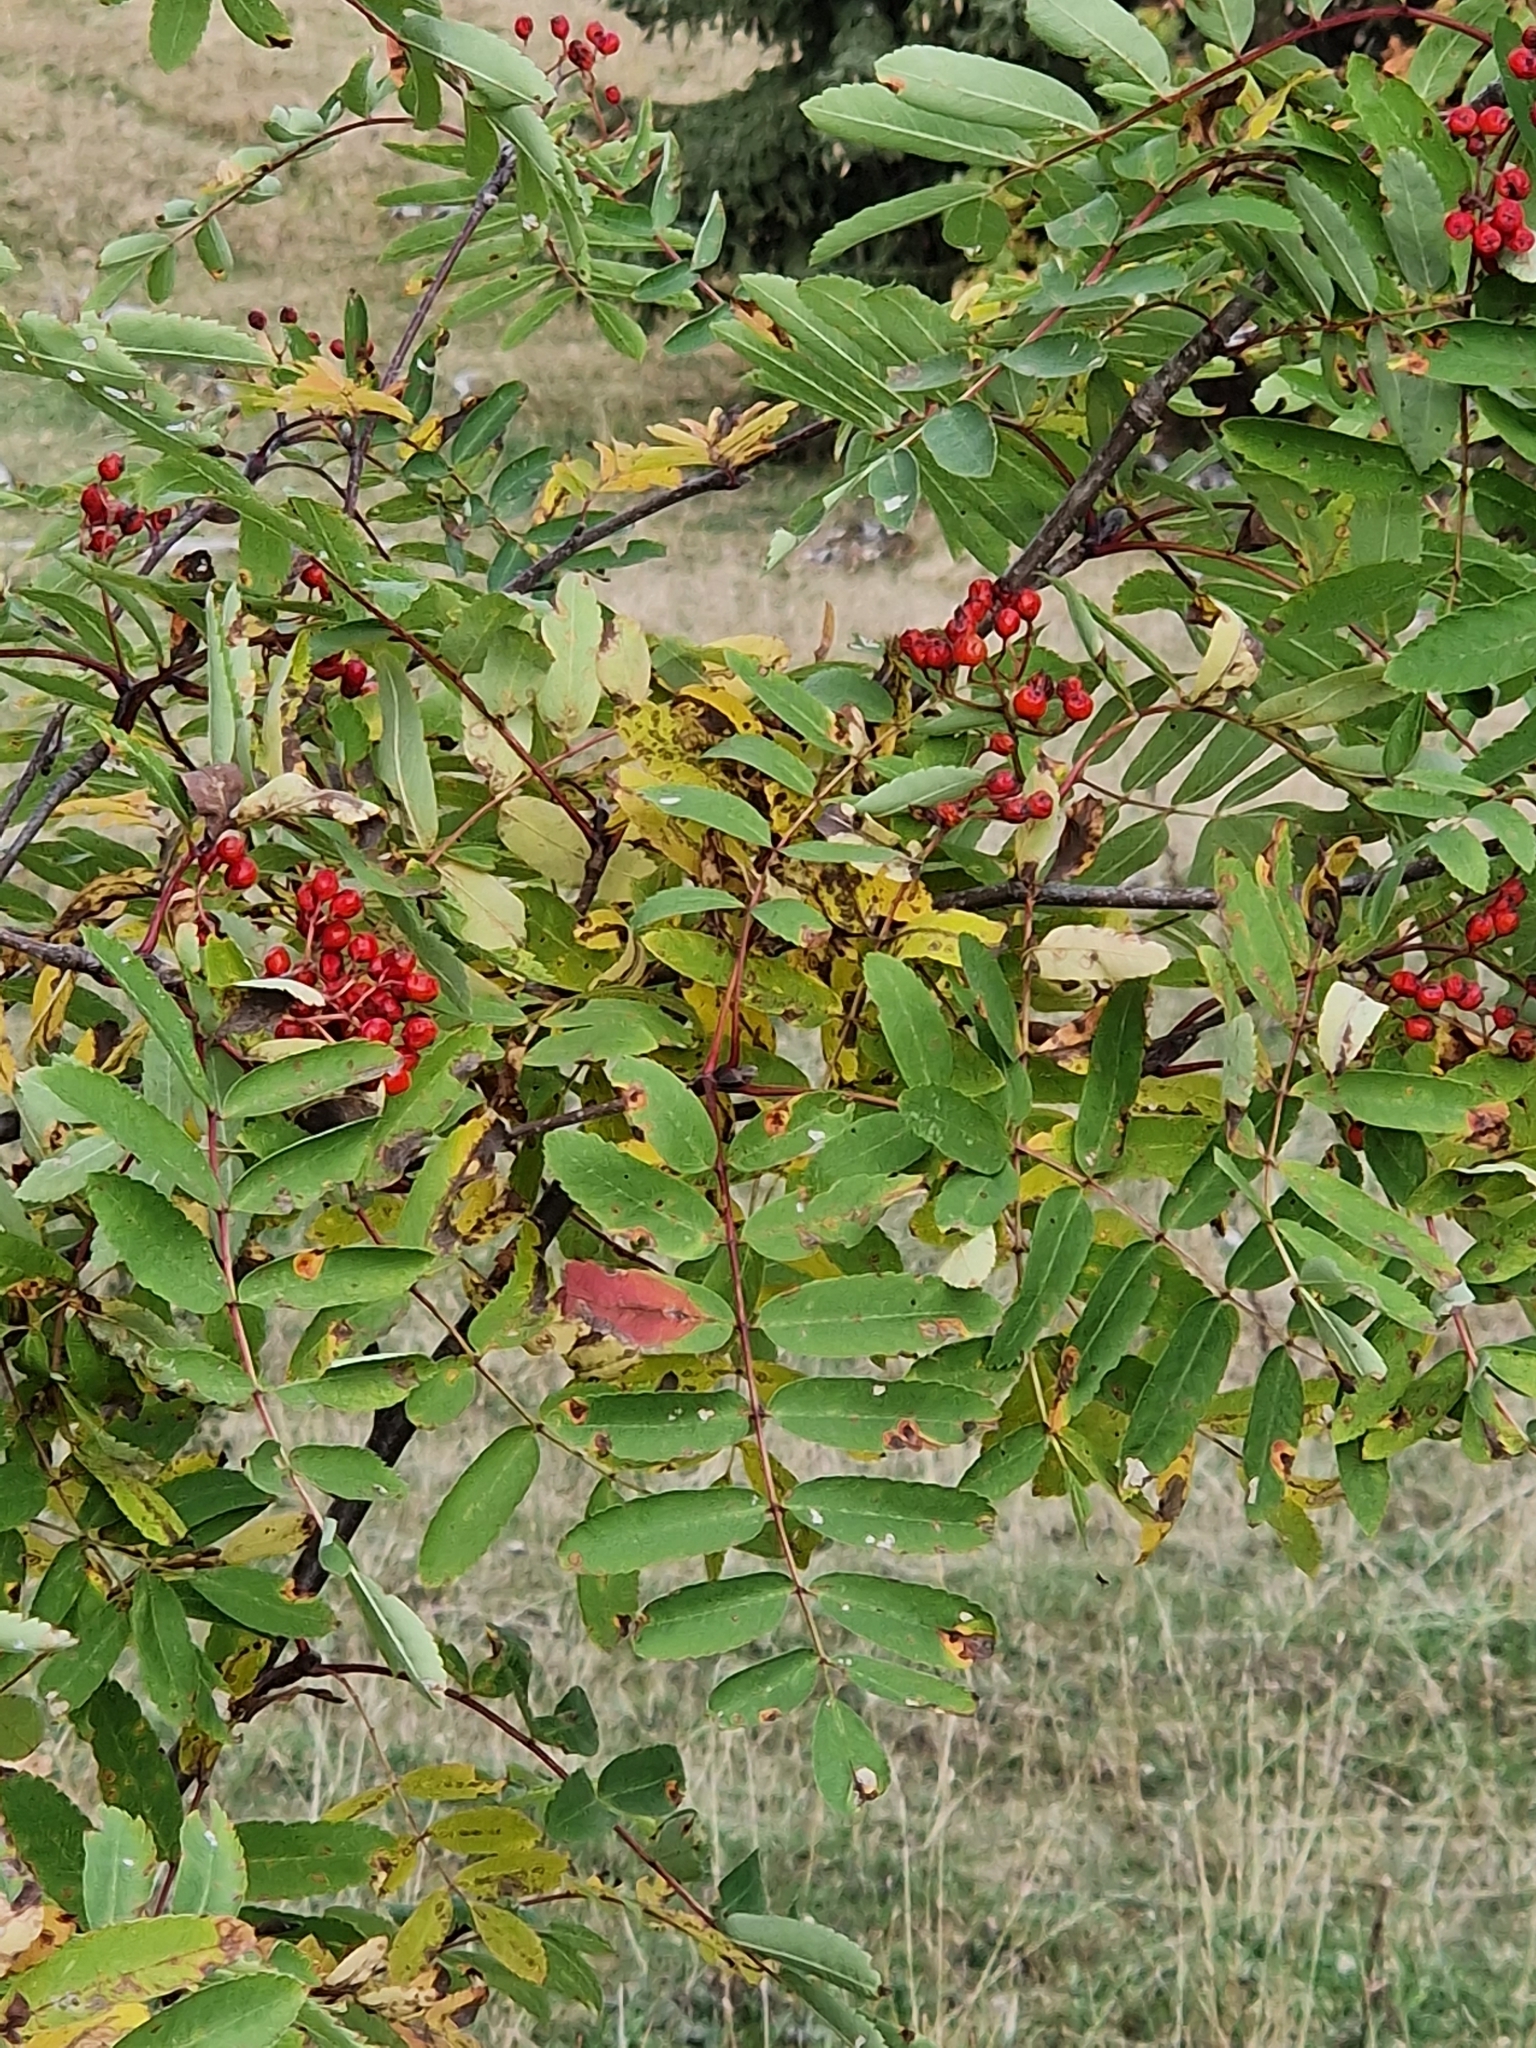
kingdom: Plantae
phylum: Tracheophyta
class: Magnoliopsida
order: Rosales
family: Rosaceae
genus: Sorbus
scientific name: Sorbus aucuparia
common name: Rowan
